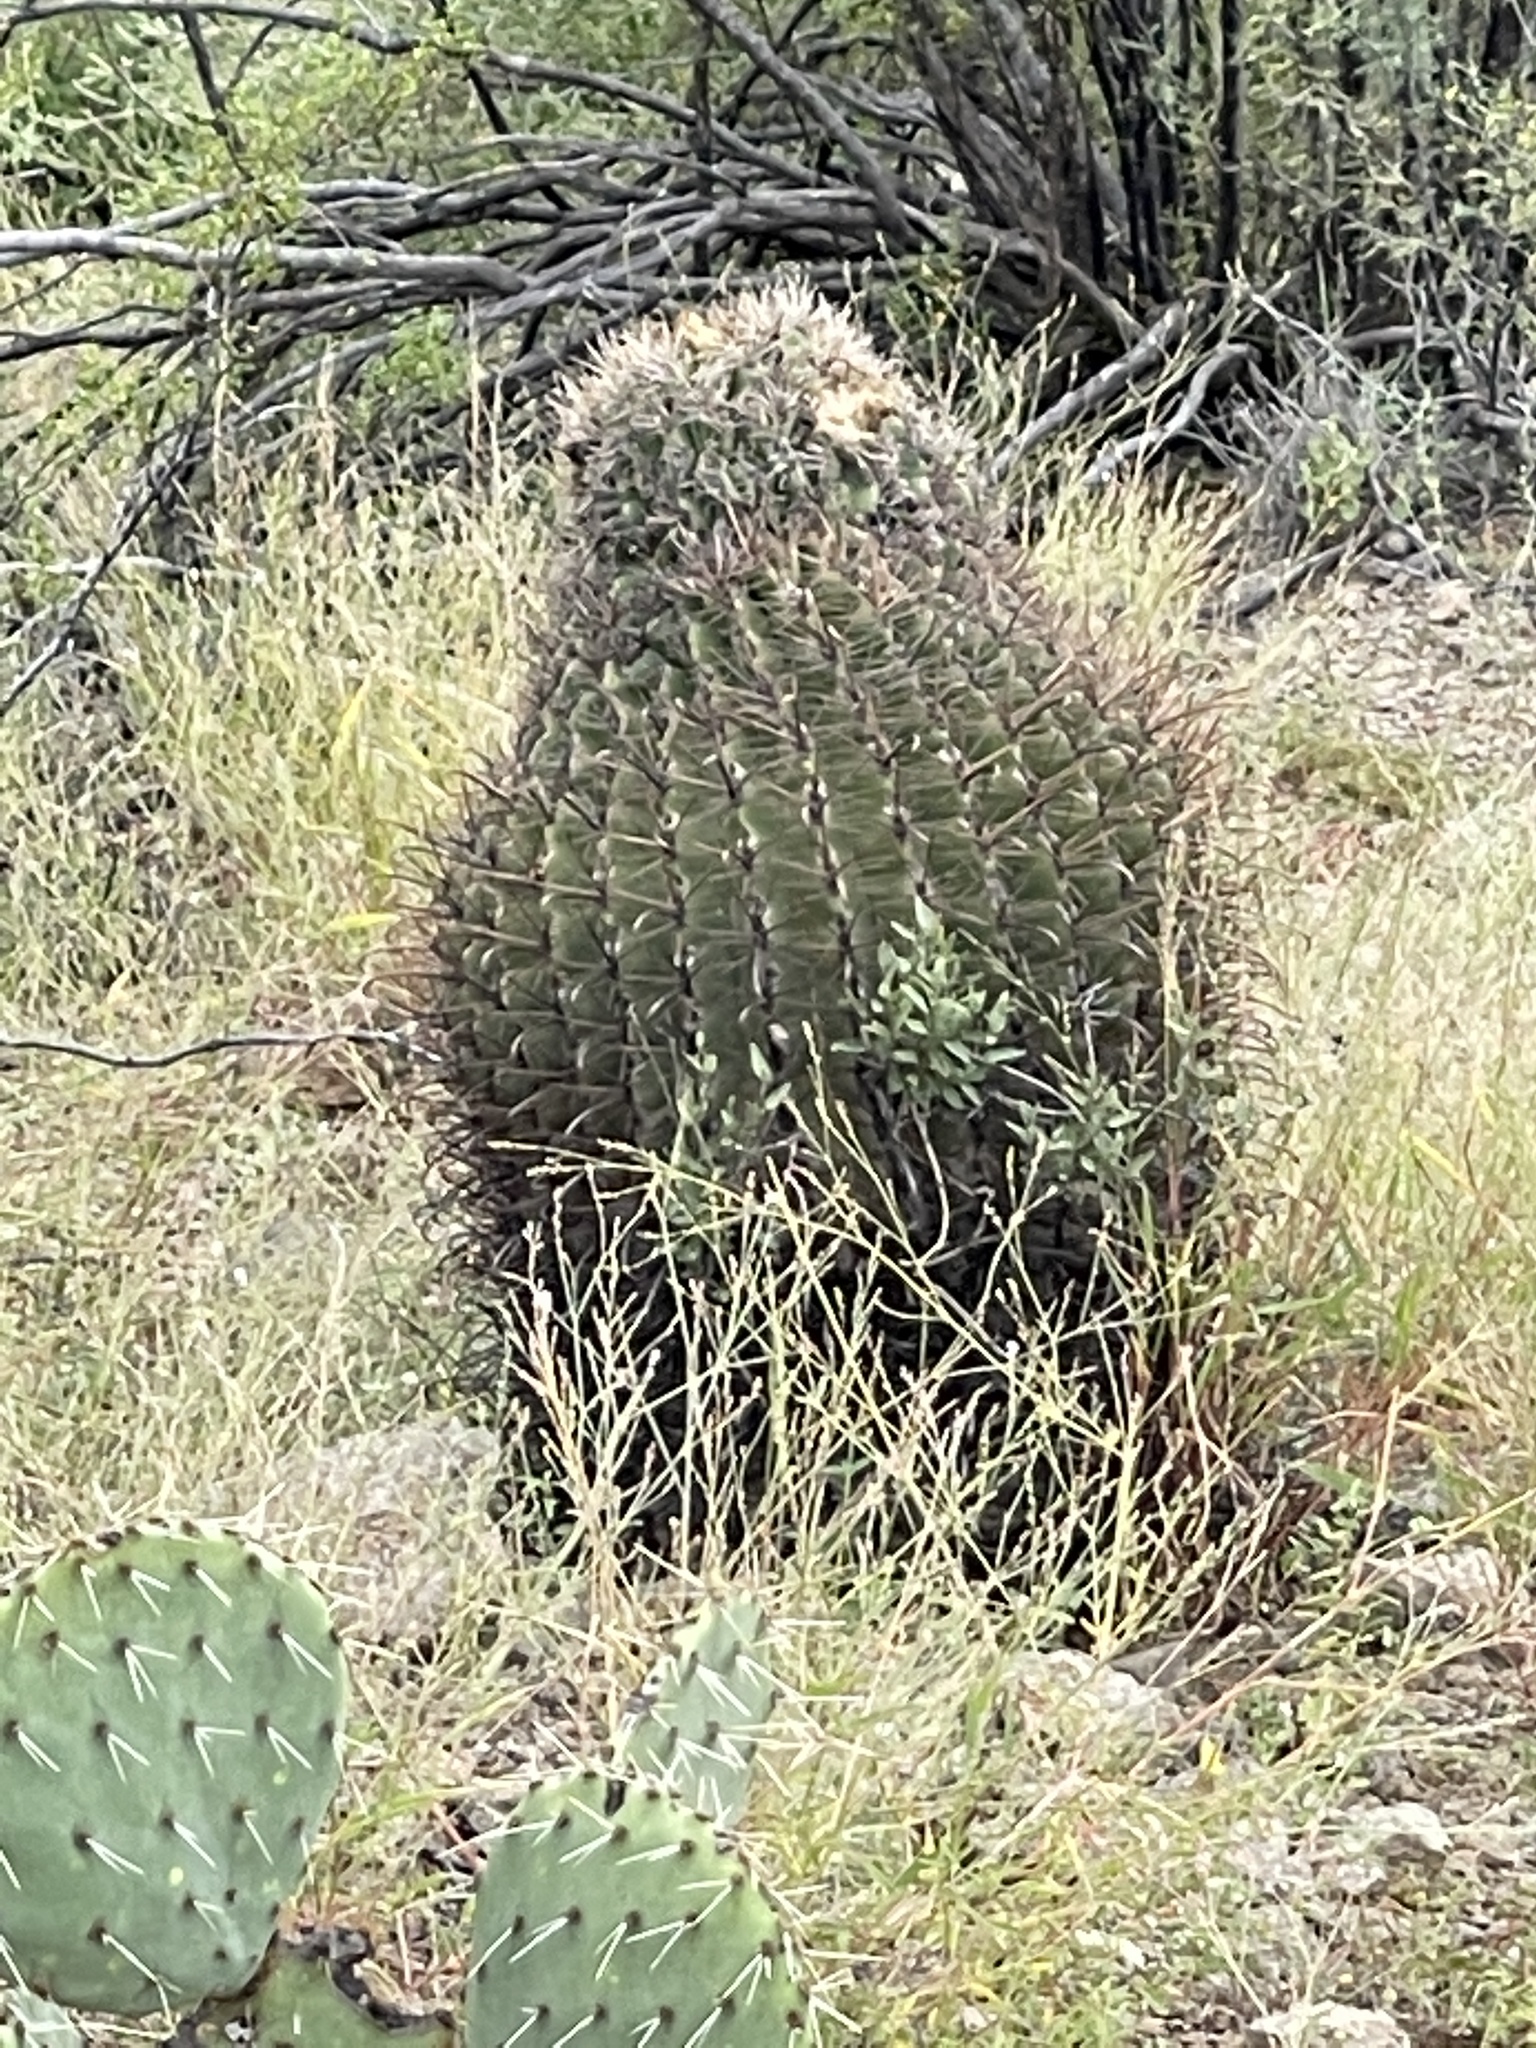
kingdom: Plantae
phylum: Tracheophyta
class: Magnoliopsida
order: Caryophyllales
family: Cactaceae
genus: Ferocactus
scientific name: Ferocactus wislizeni
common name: Candy barrel cactus
